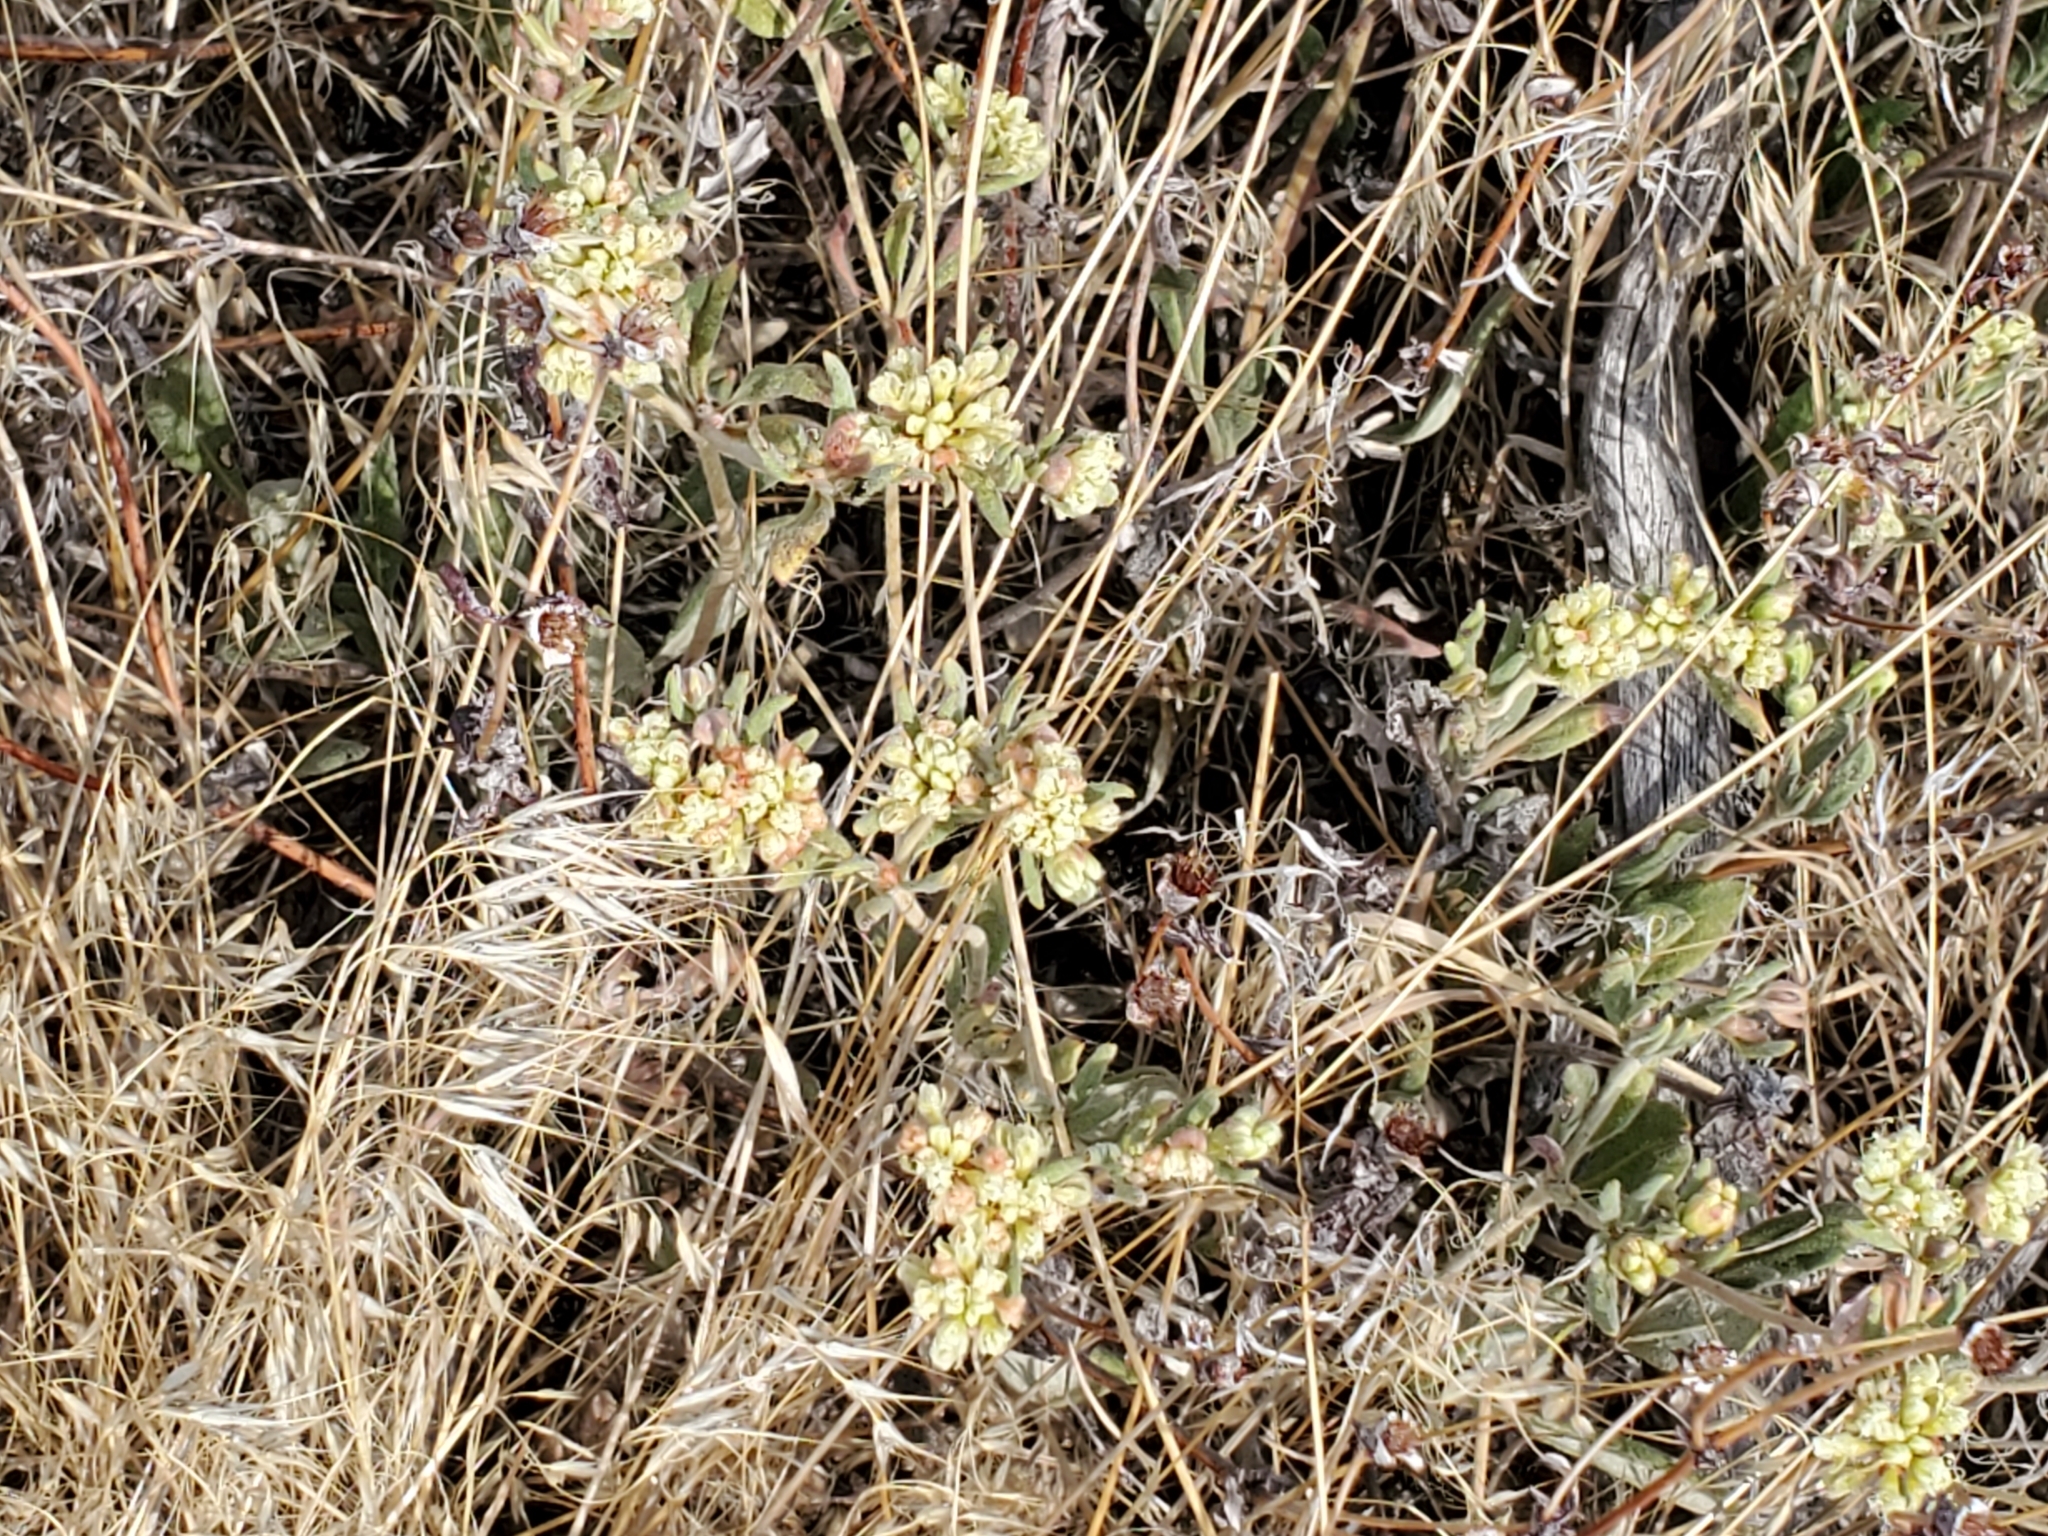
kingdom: Plantae
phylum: Tracheophyta
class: Magnoliopsida
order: Caryophyllales
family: Polygonaceae
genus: Eriogonum
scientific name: Eriogonum jamesii
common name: Antelope-sage
